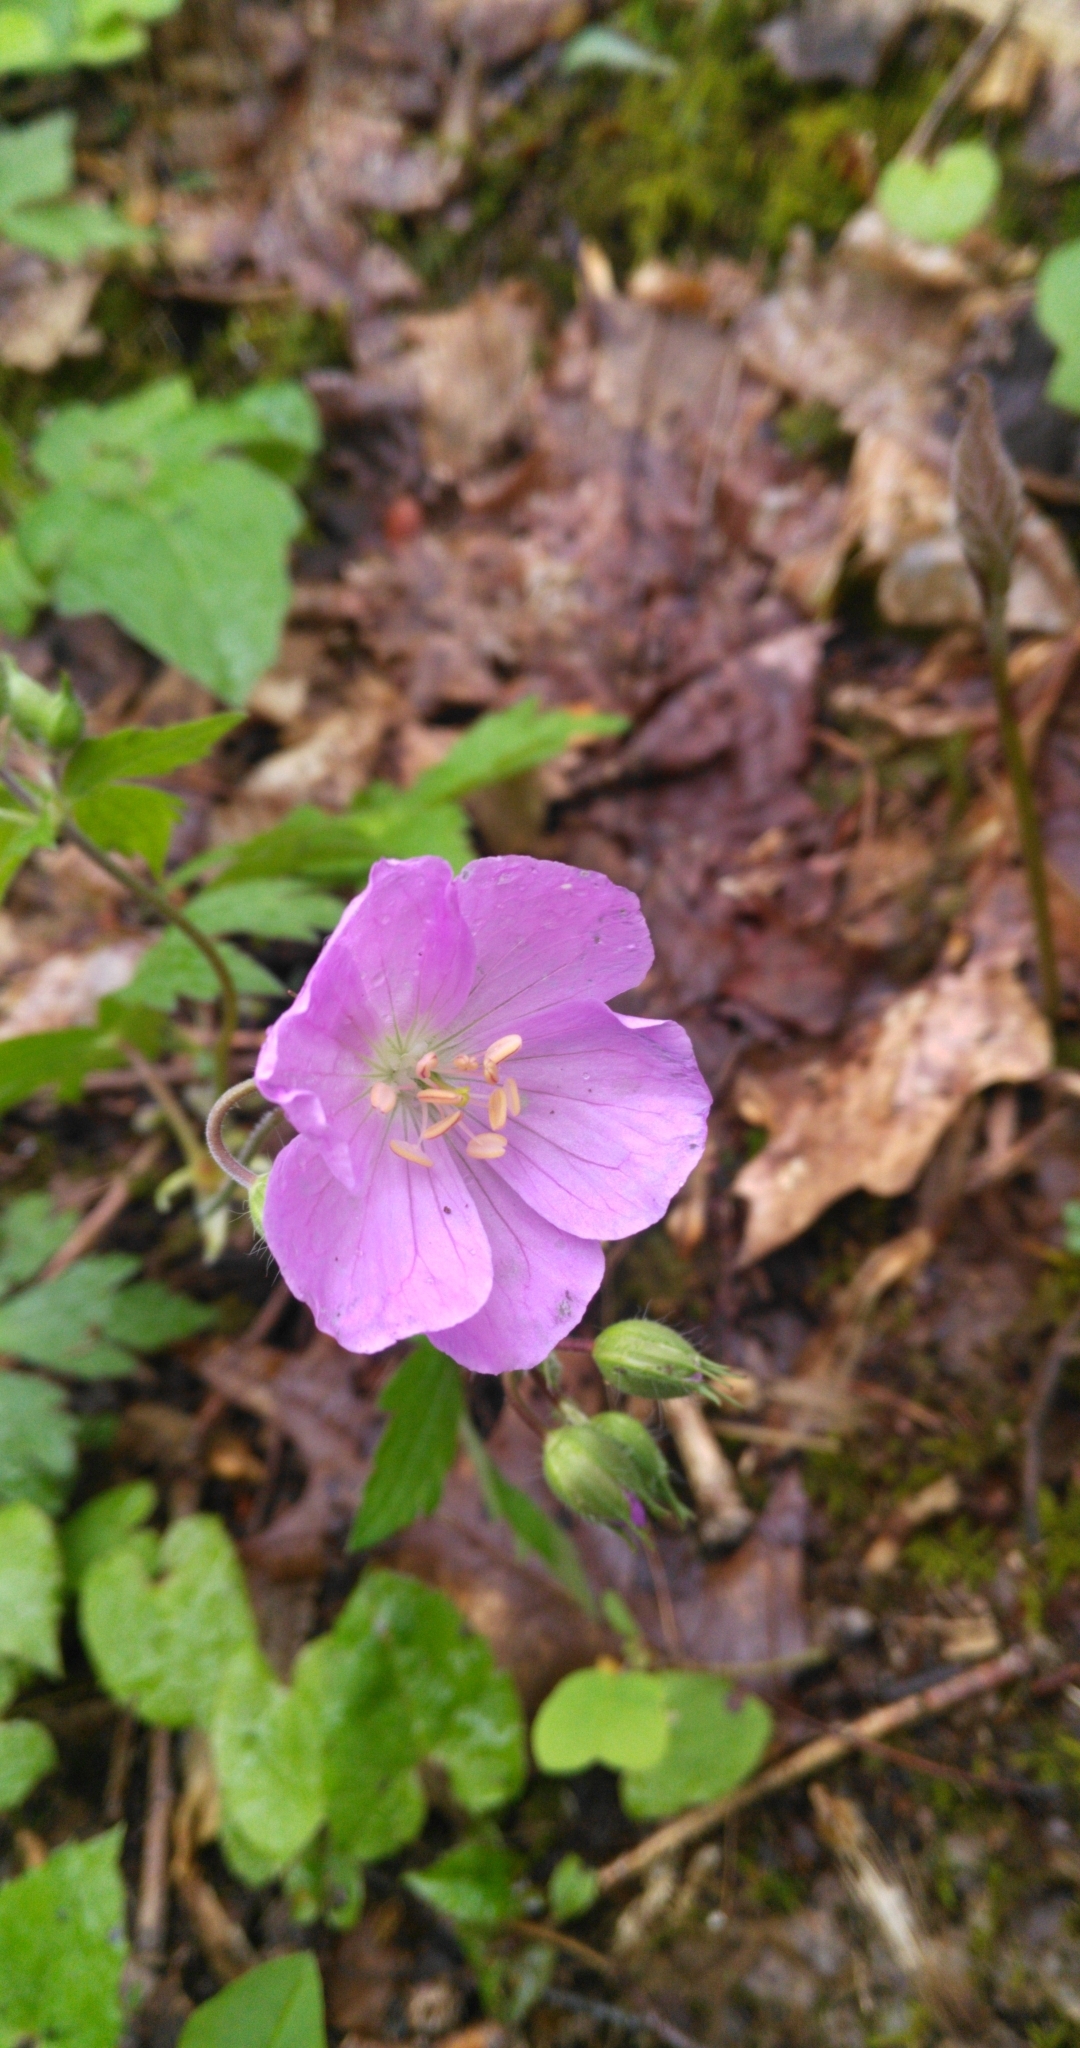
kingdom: Plantae
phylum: Tracheophyta
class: Magnoliopsida
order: Geraniales
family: Geraniaceae
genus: Geranium
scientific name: Geranium maculatum
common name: Spotted geranium
